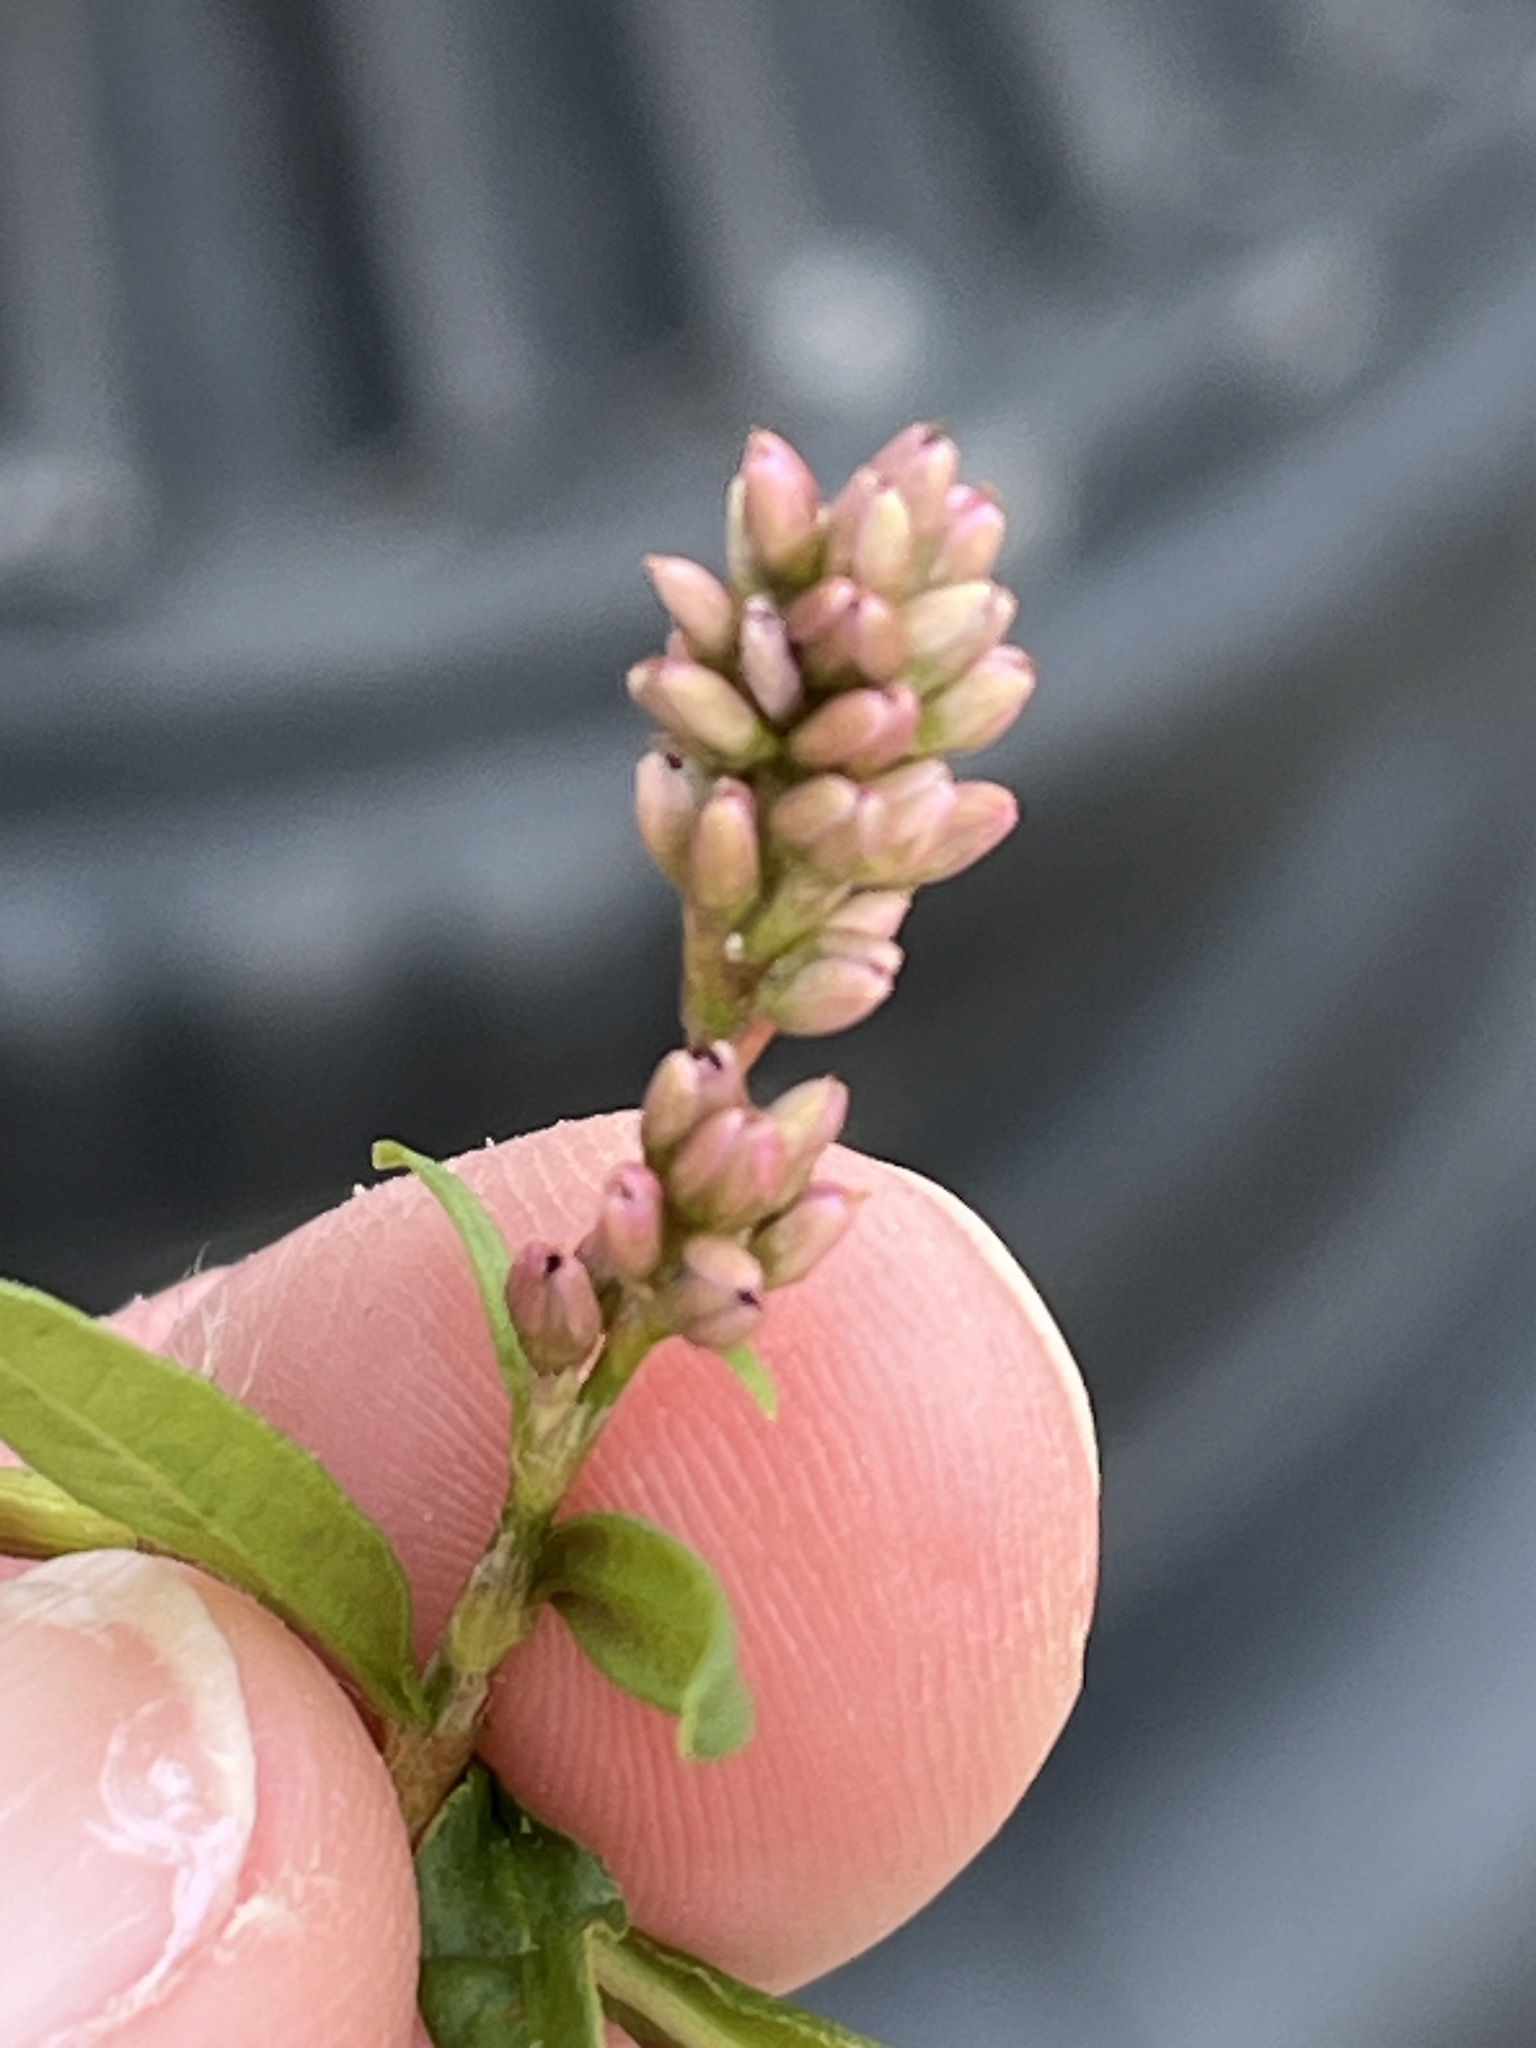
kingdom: Plantae
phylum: Tracheophyta
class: Magnoliopsida
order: Caryophyllales
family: Polygonaceae
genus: Persicaria
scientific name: Persicaria maculosa
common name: Redshank
